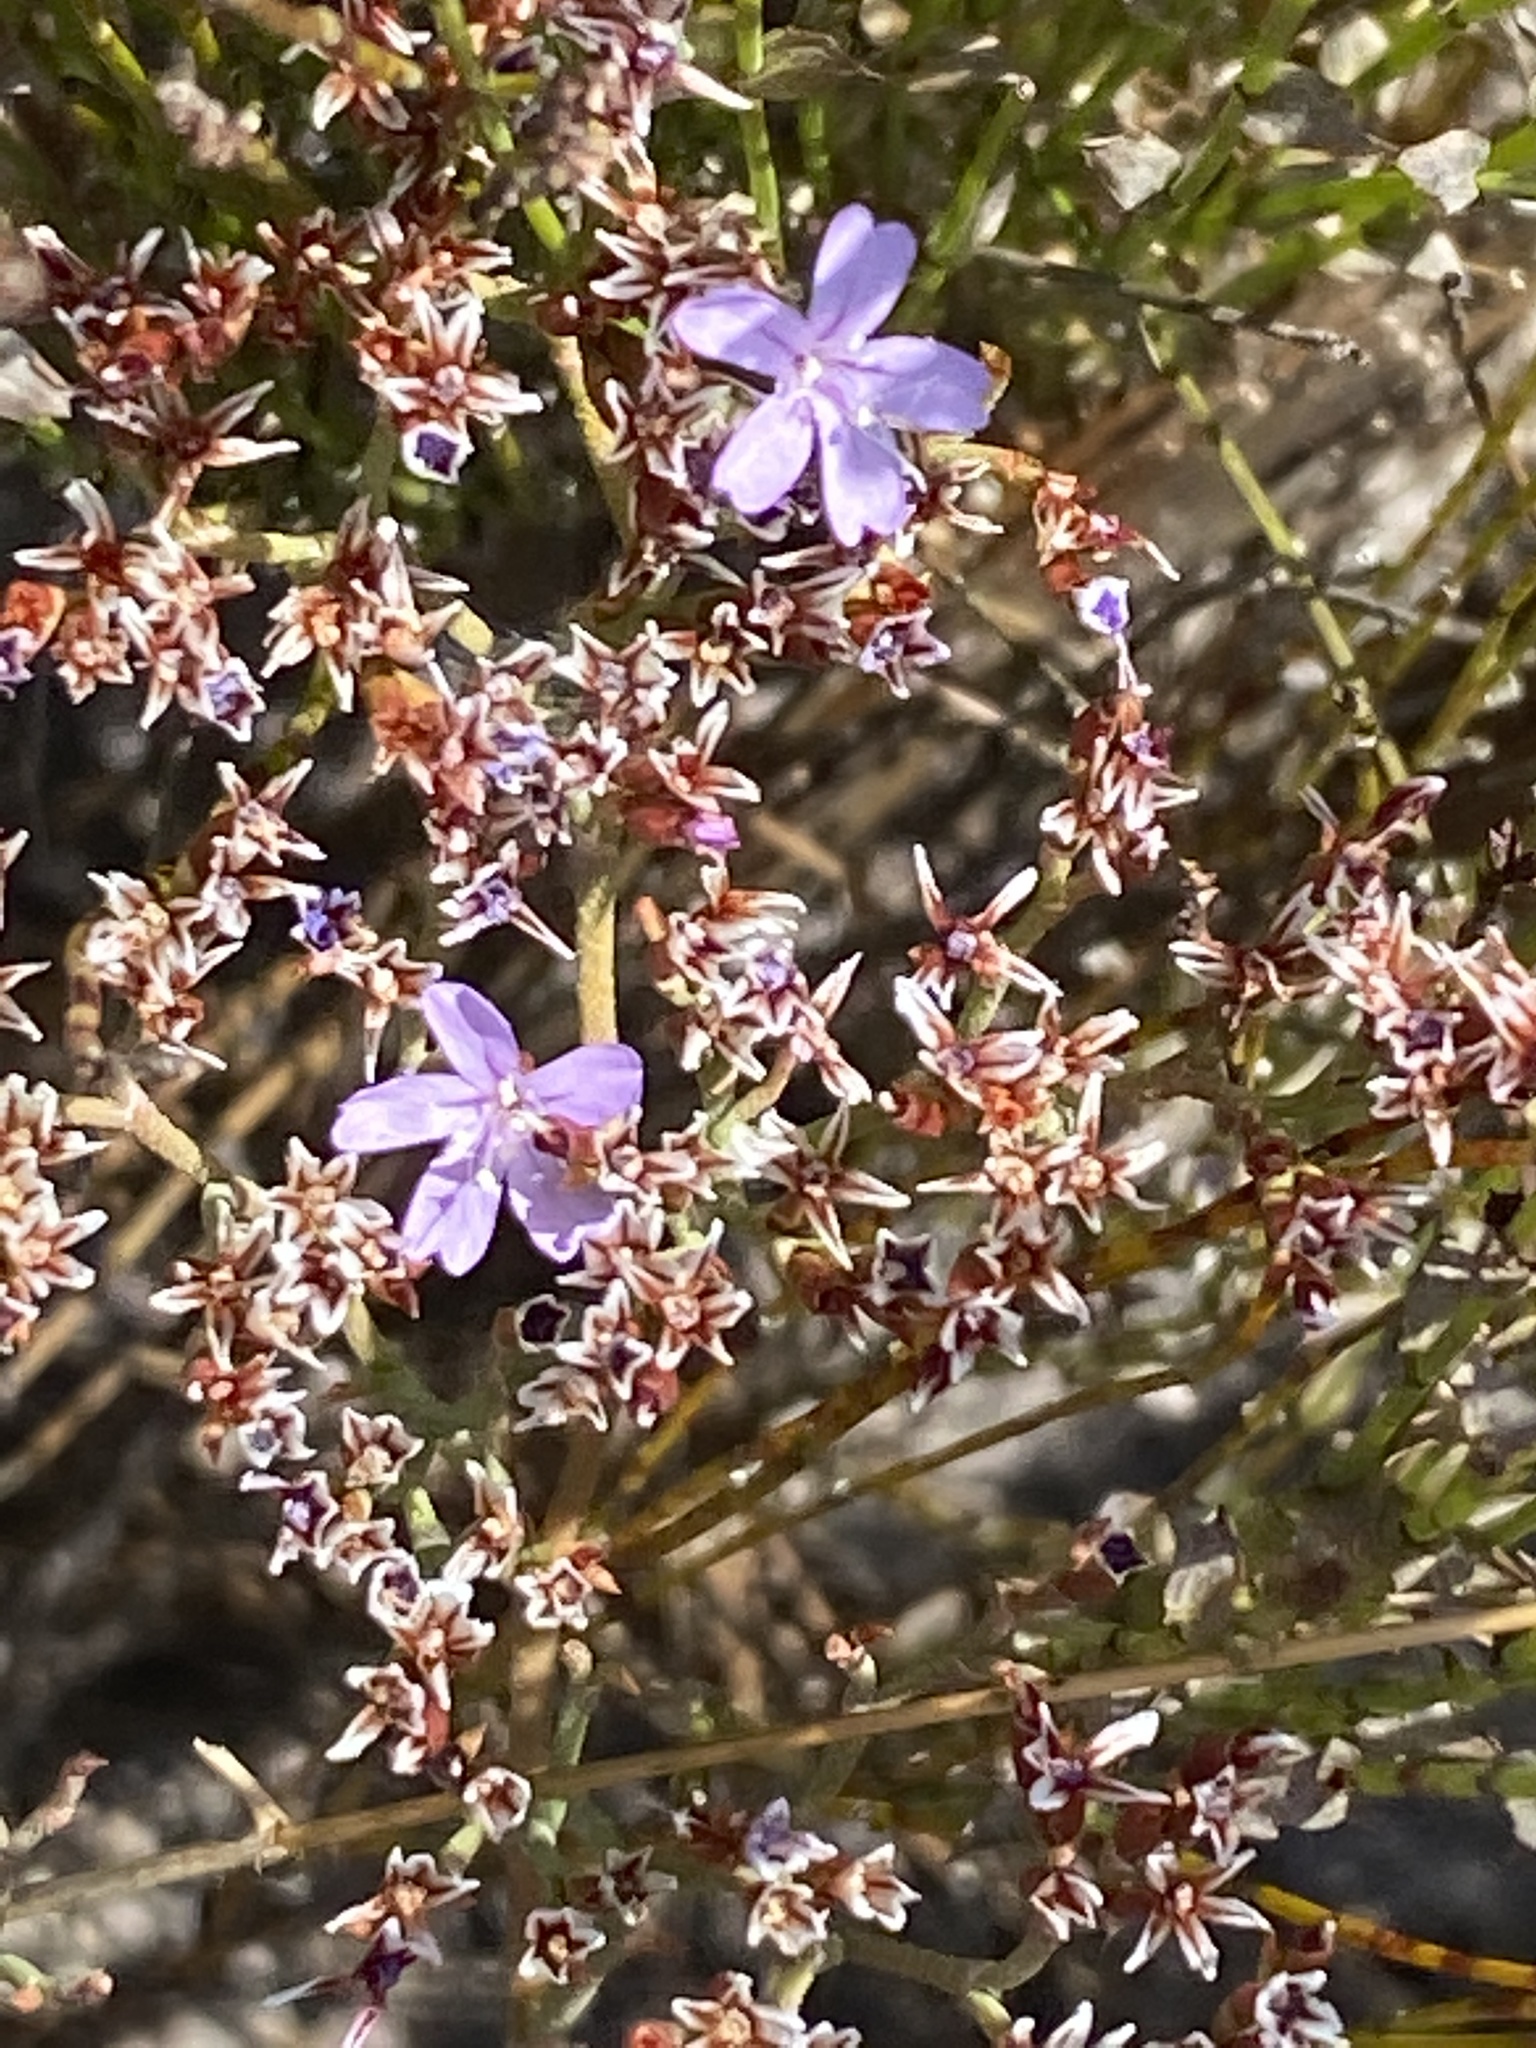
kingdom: Plantae
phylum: Tracheophyta
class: Magnoliopsida
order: Caryophyllales
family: Plumbaginaceae
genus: Limonium
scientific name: Limonium scabrum
